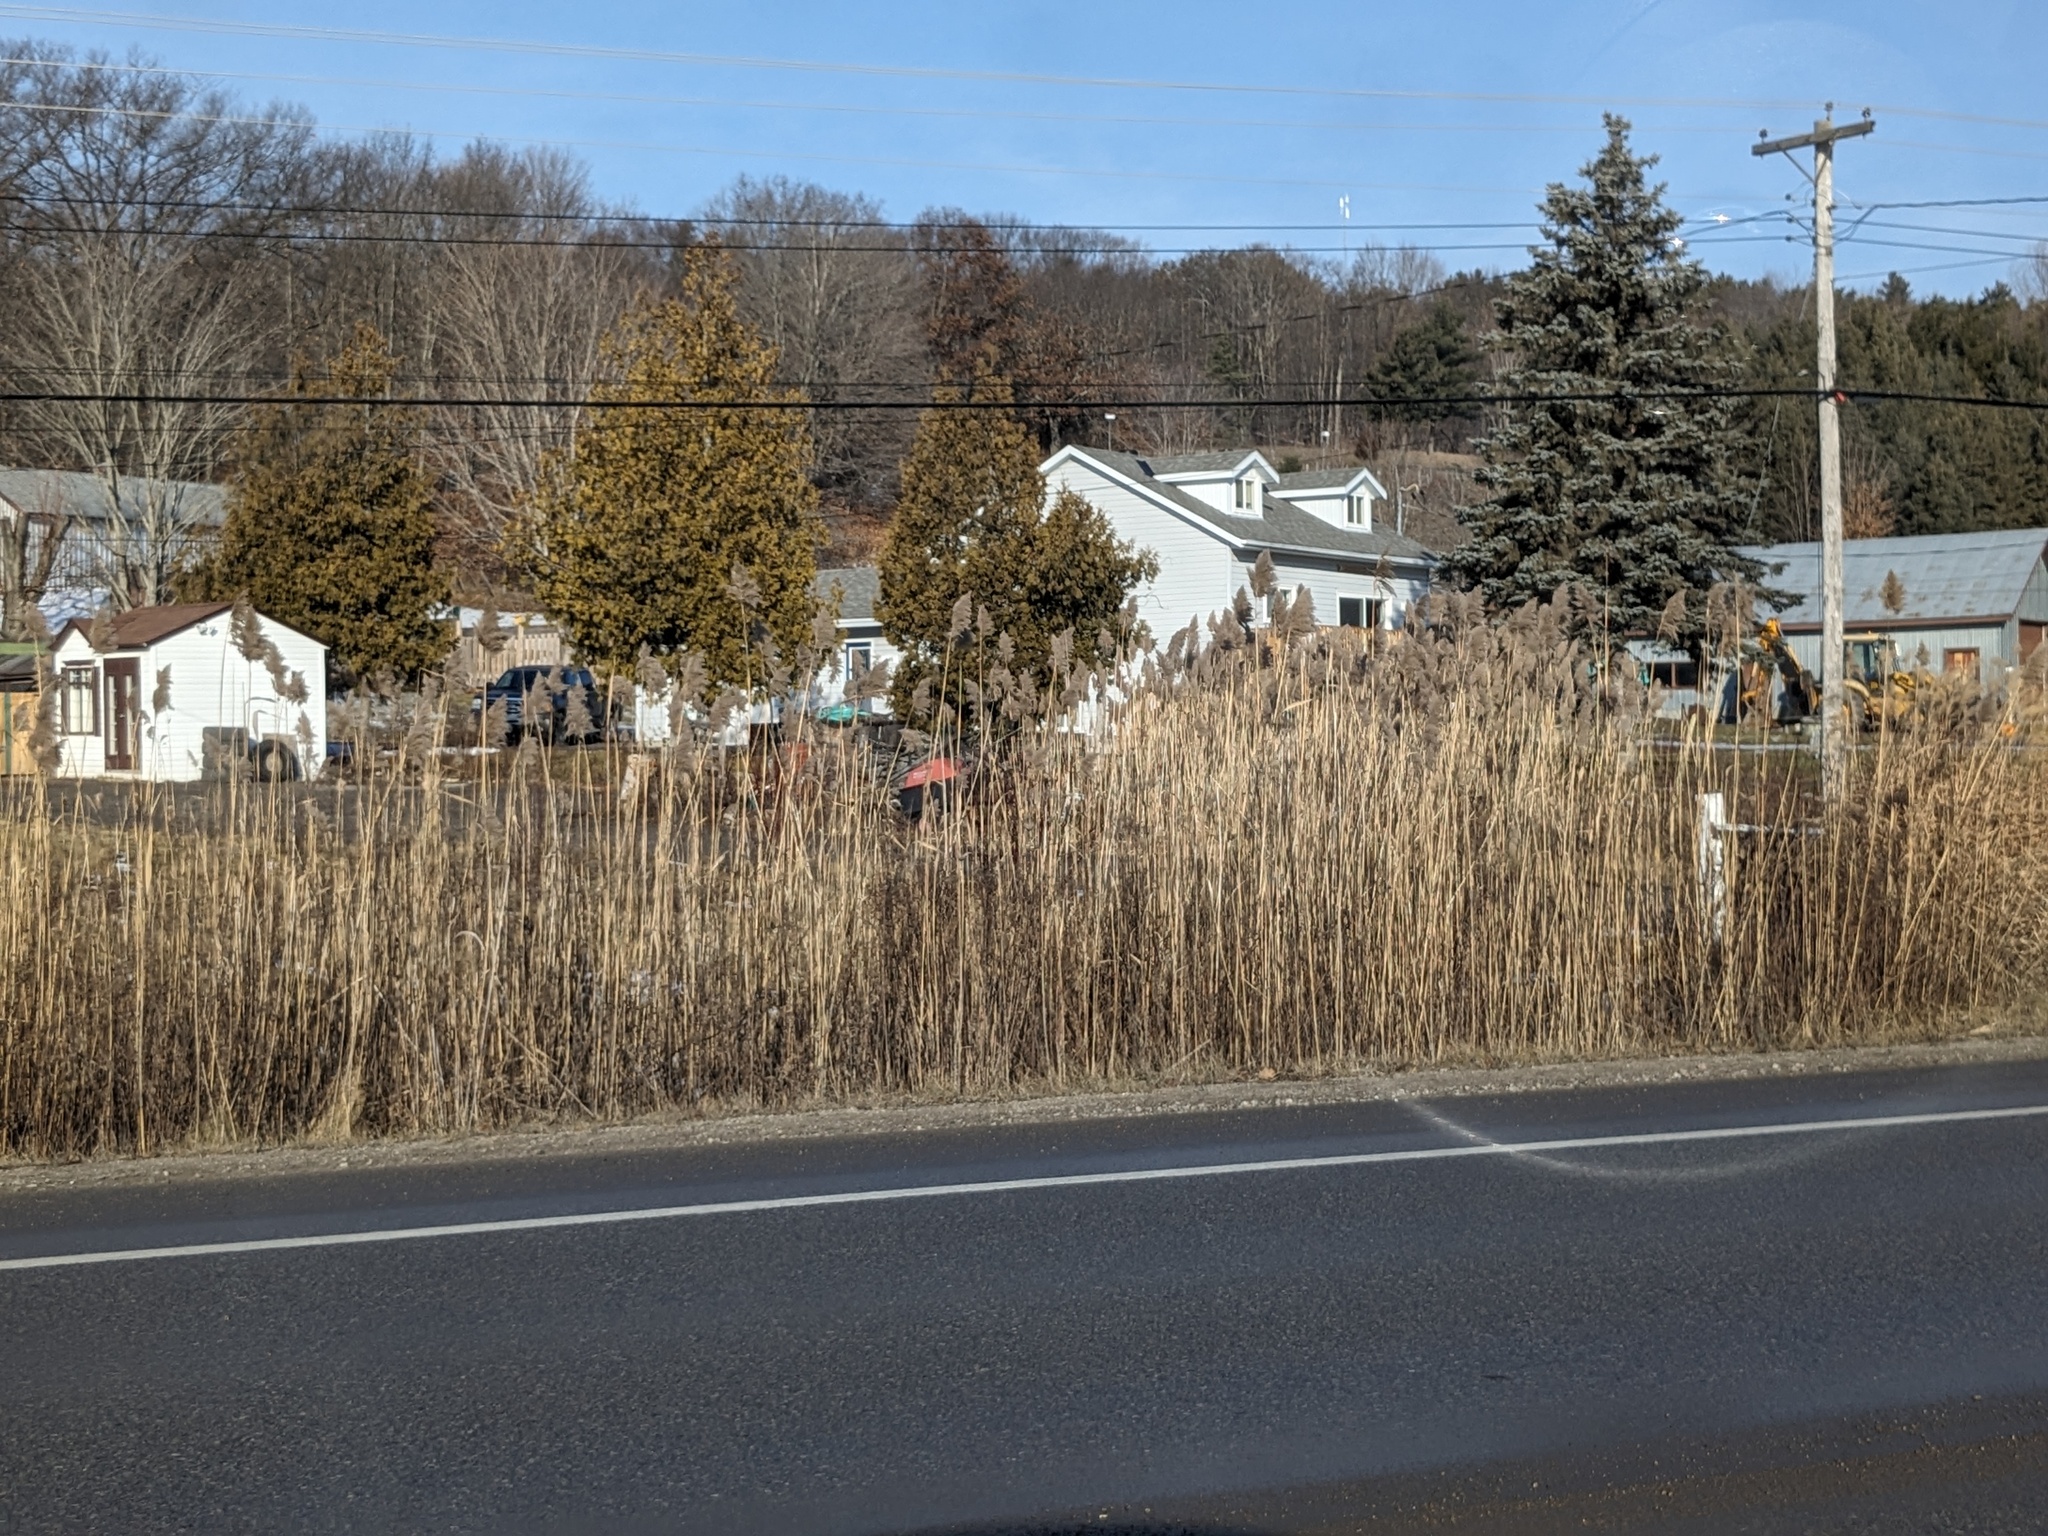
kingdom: Plantae
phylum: Tracheophyta
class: Liliopsida
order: Poales
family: Poaceae
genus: Phragmites
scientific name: Phragmites australis
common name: Common reed
